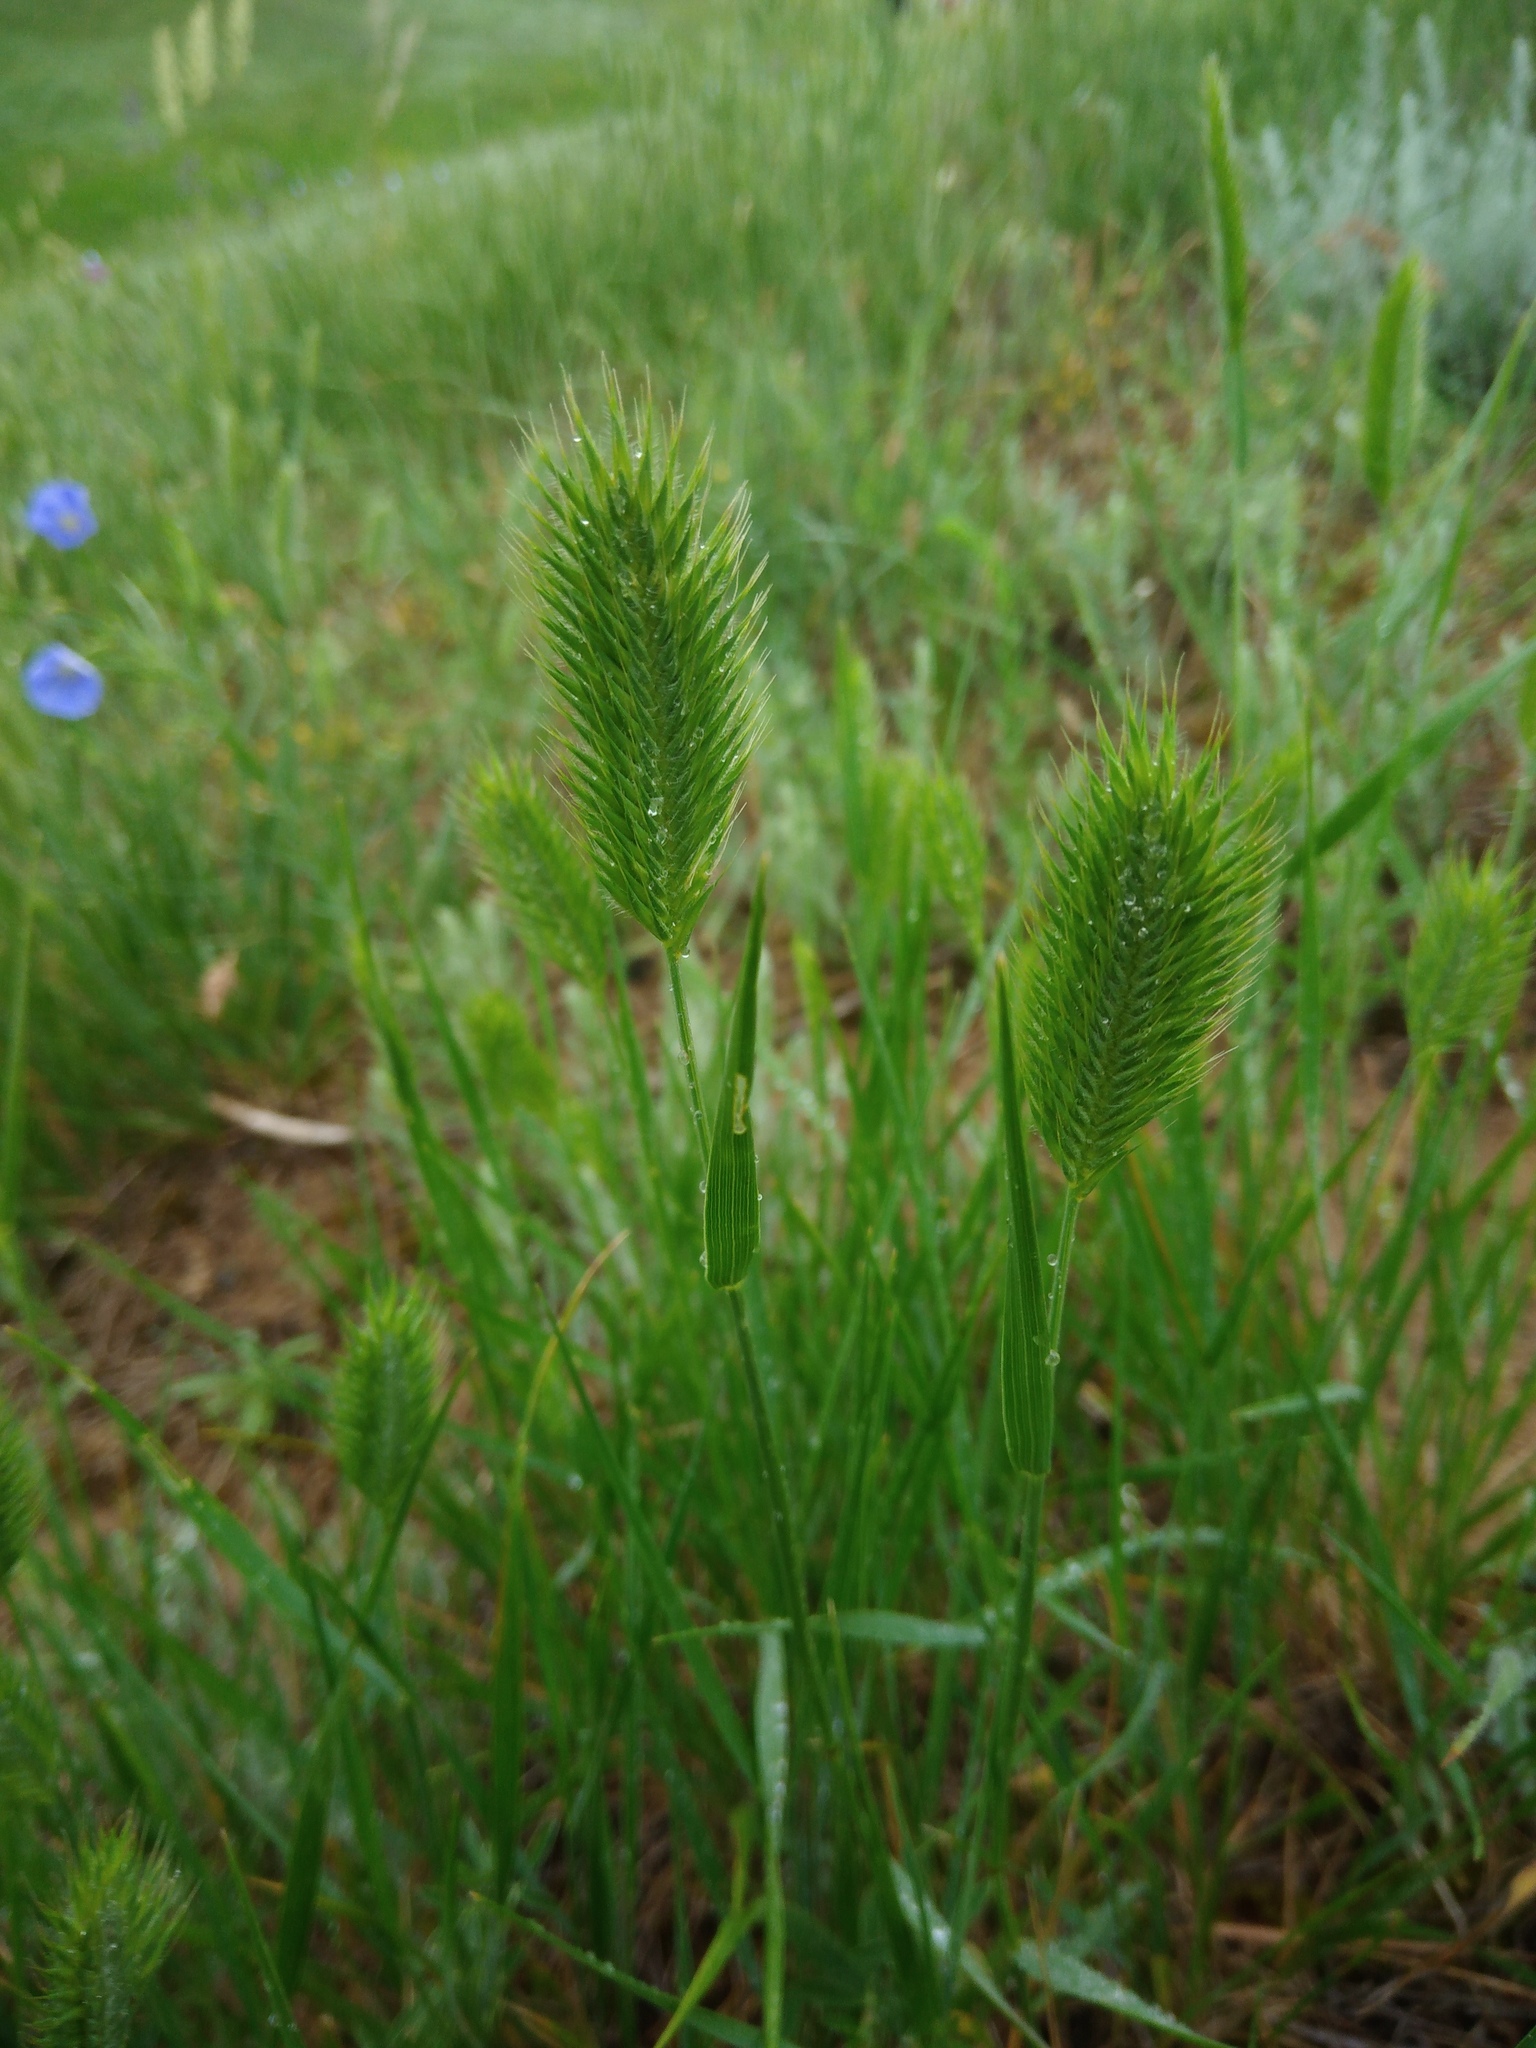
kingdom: Plantae
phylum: Tracheophyta
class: Liliopsida
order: Poales
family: Poaceae
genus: Agropyron
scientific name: Agropyron cristatum
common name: Crested wheatgrass
